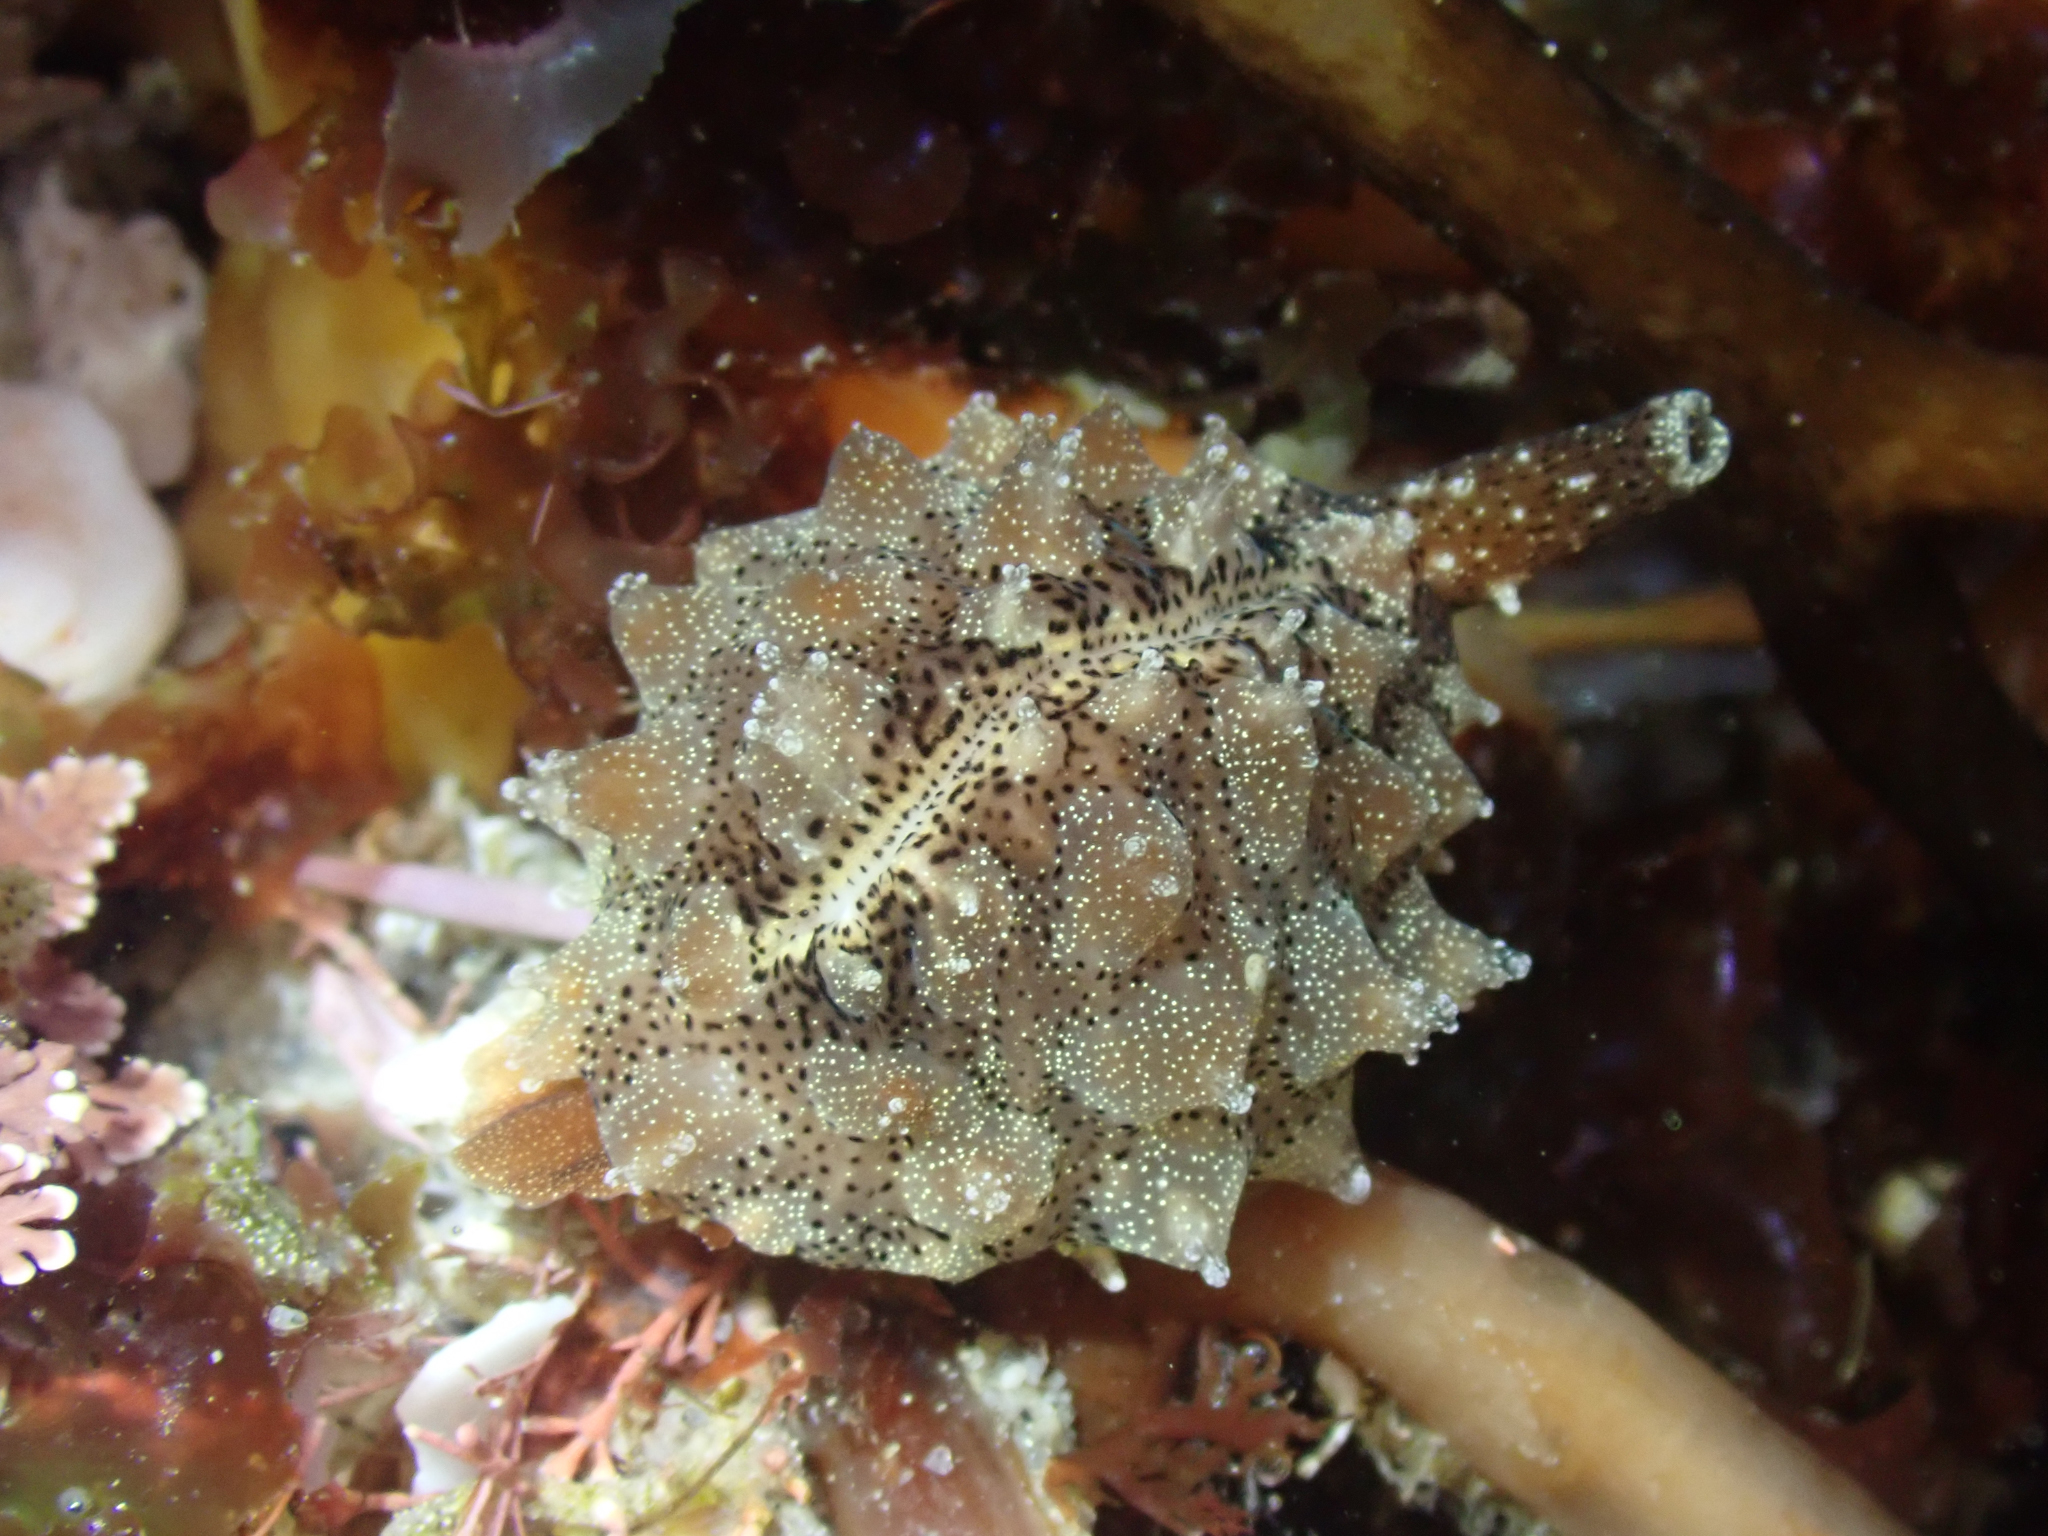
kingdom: Animalia
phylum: Mollusca
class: Gastropoda
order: Littorinimorpha
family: Triviidae
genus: Pusula
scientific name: Pusula solandri
